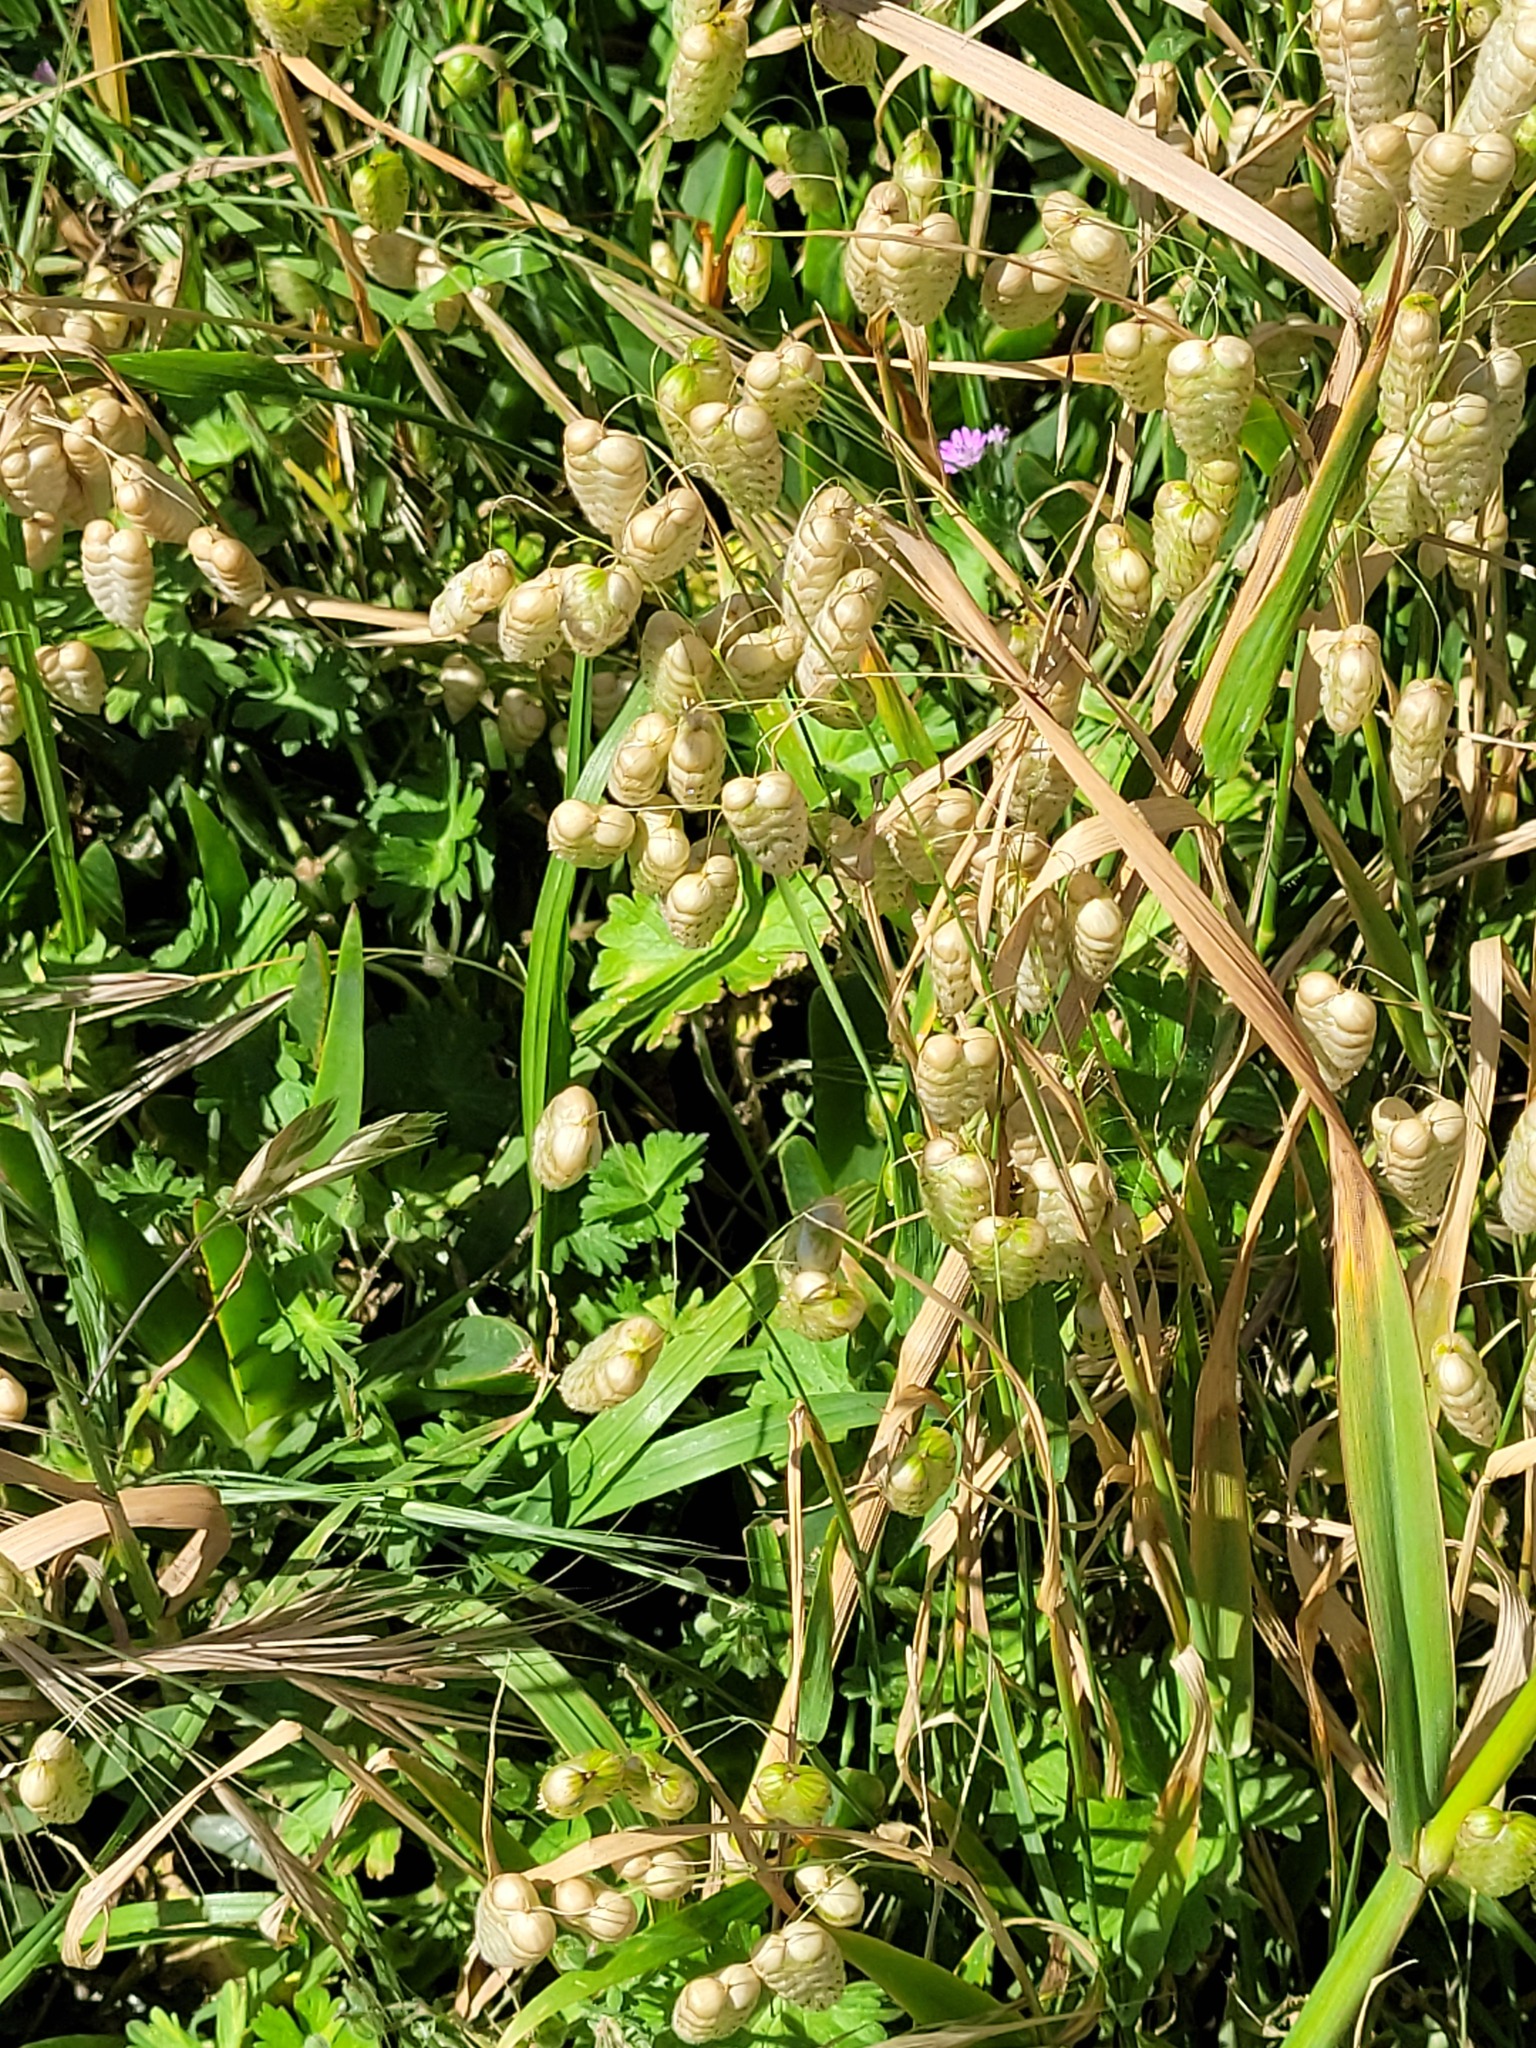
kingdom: Plantae
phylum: Tracheophyta
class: Liliopsida
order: Poales
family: Poaceae
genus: Briza
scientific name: Briza maxima
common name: Big quakinggrass
